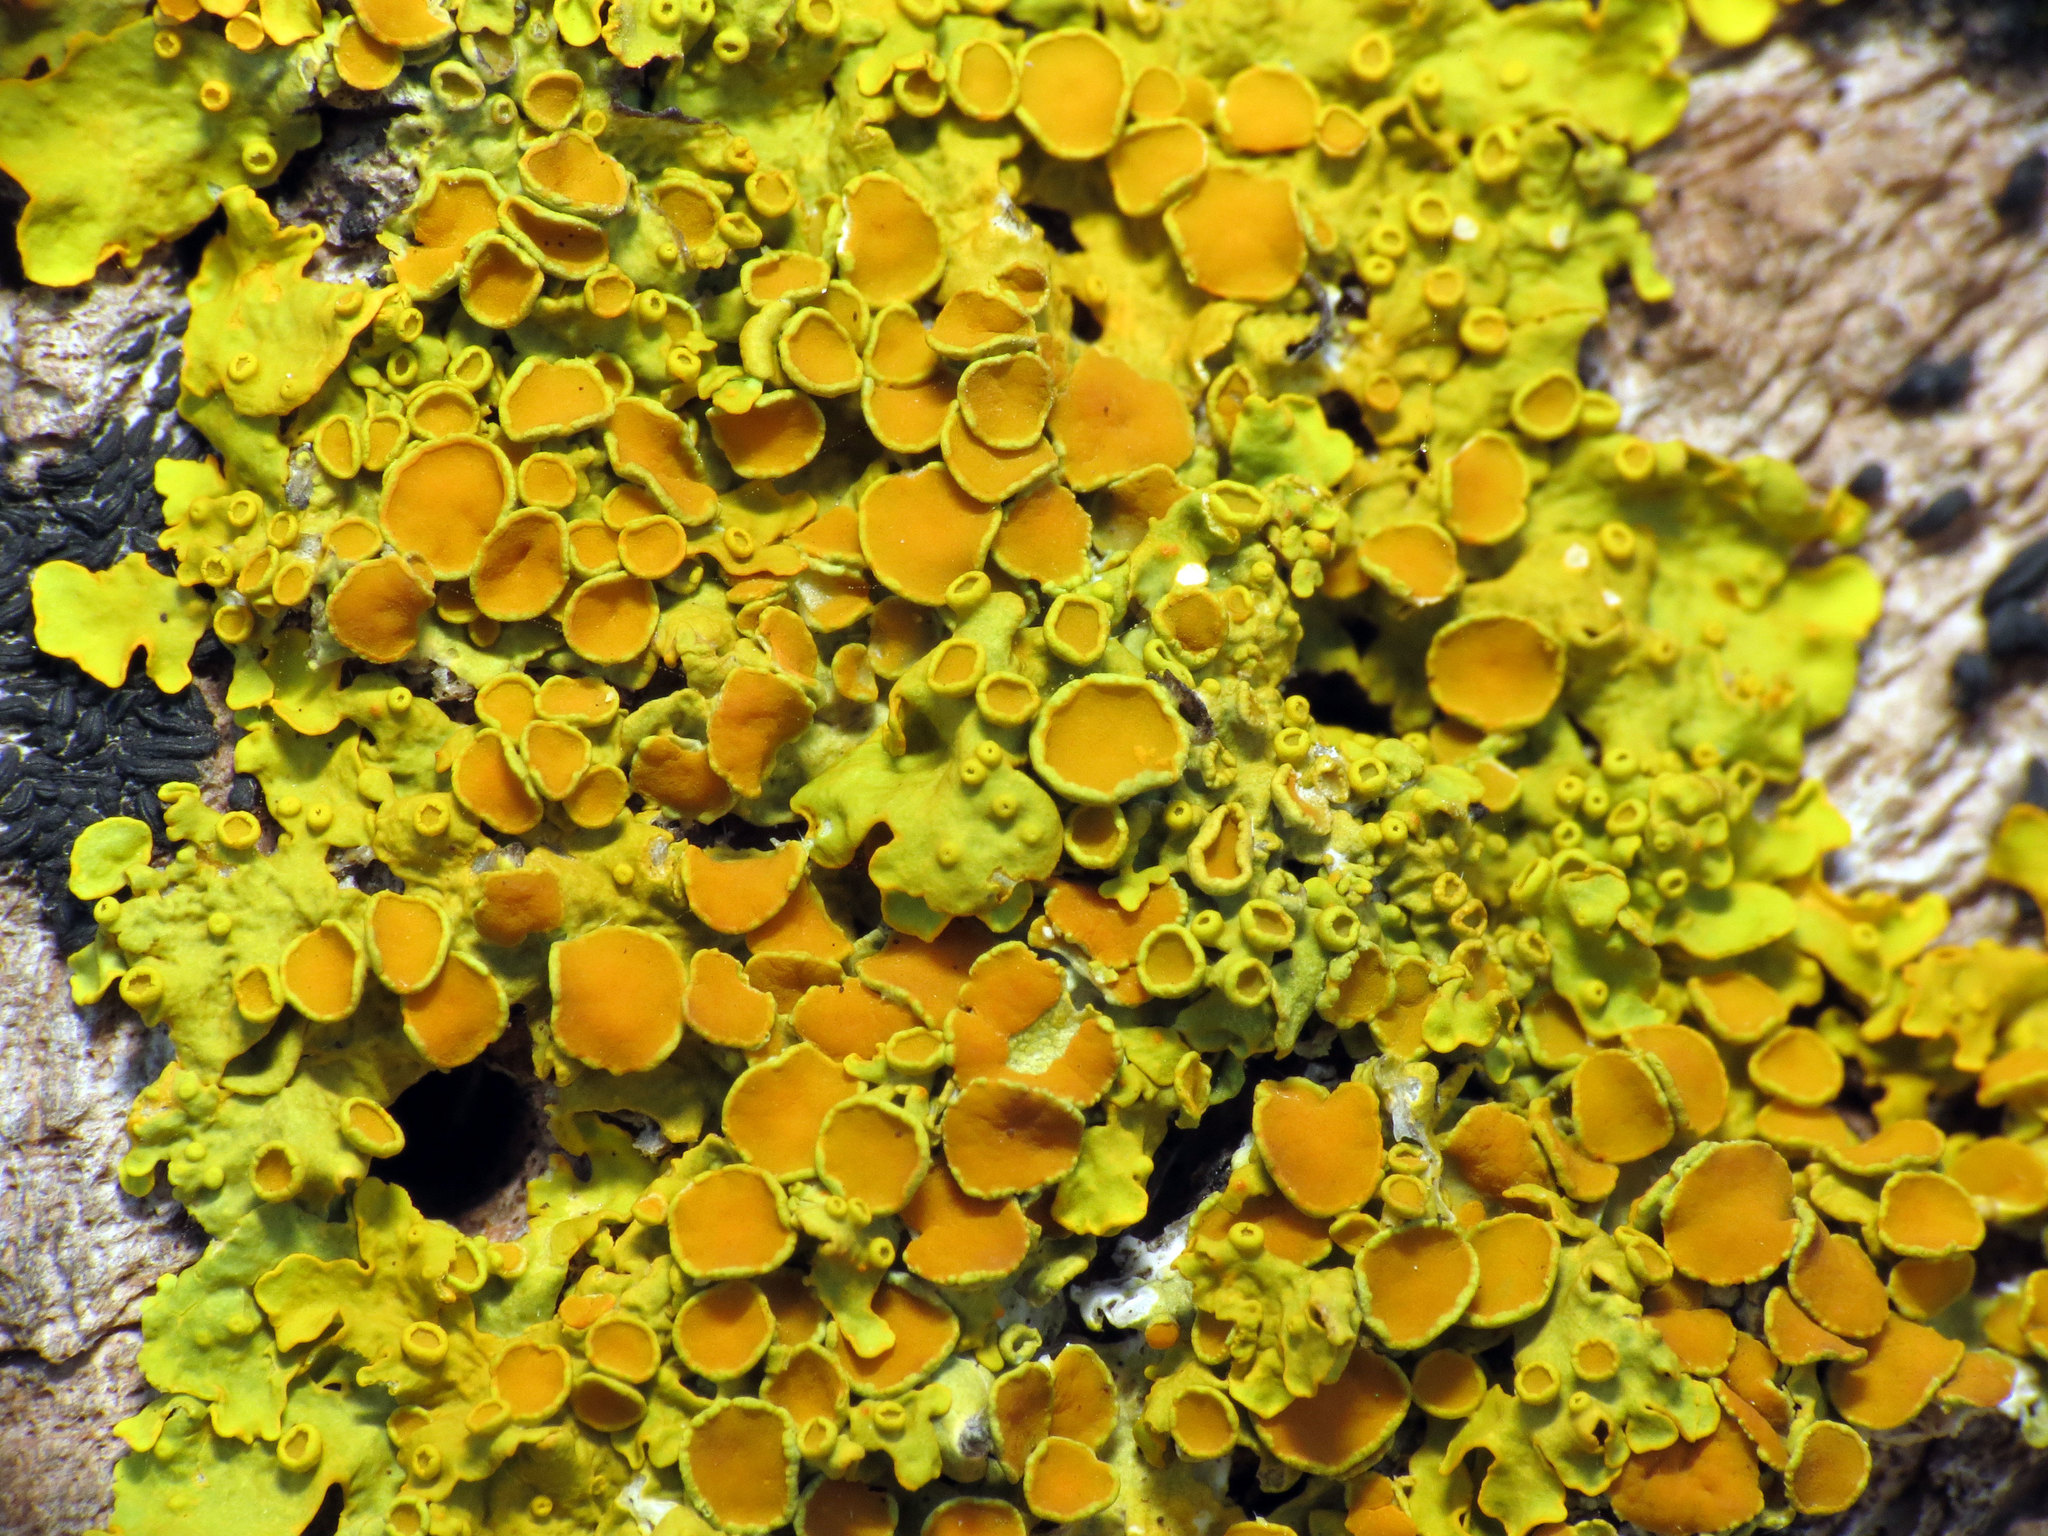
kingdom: Fungi
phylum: Ascomycota
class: Lecanoromycetes
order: Teloschistales
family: Teloschistaceae
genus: Xanthoria
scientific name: Xanthoria parietina
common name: Common orange lichen
